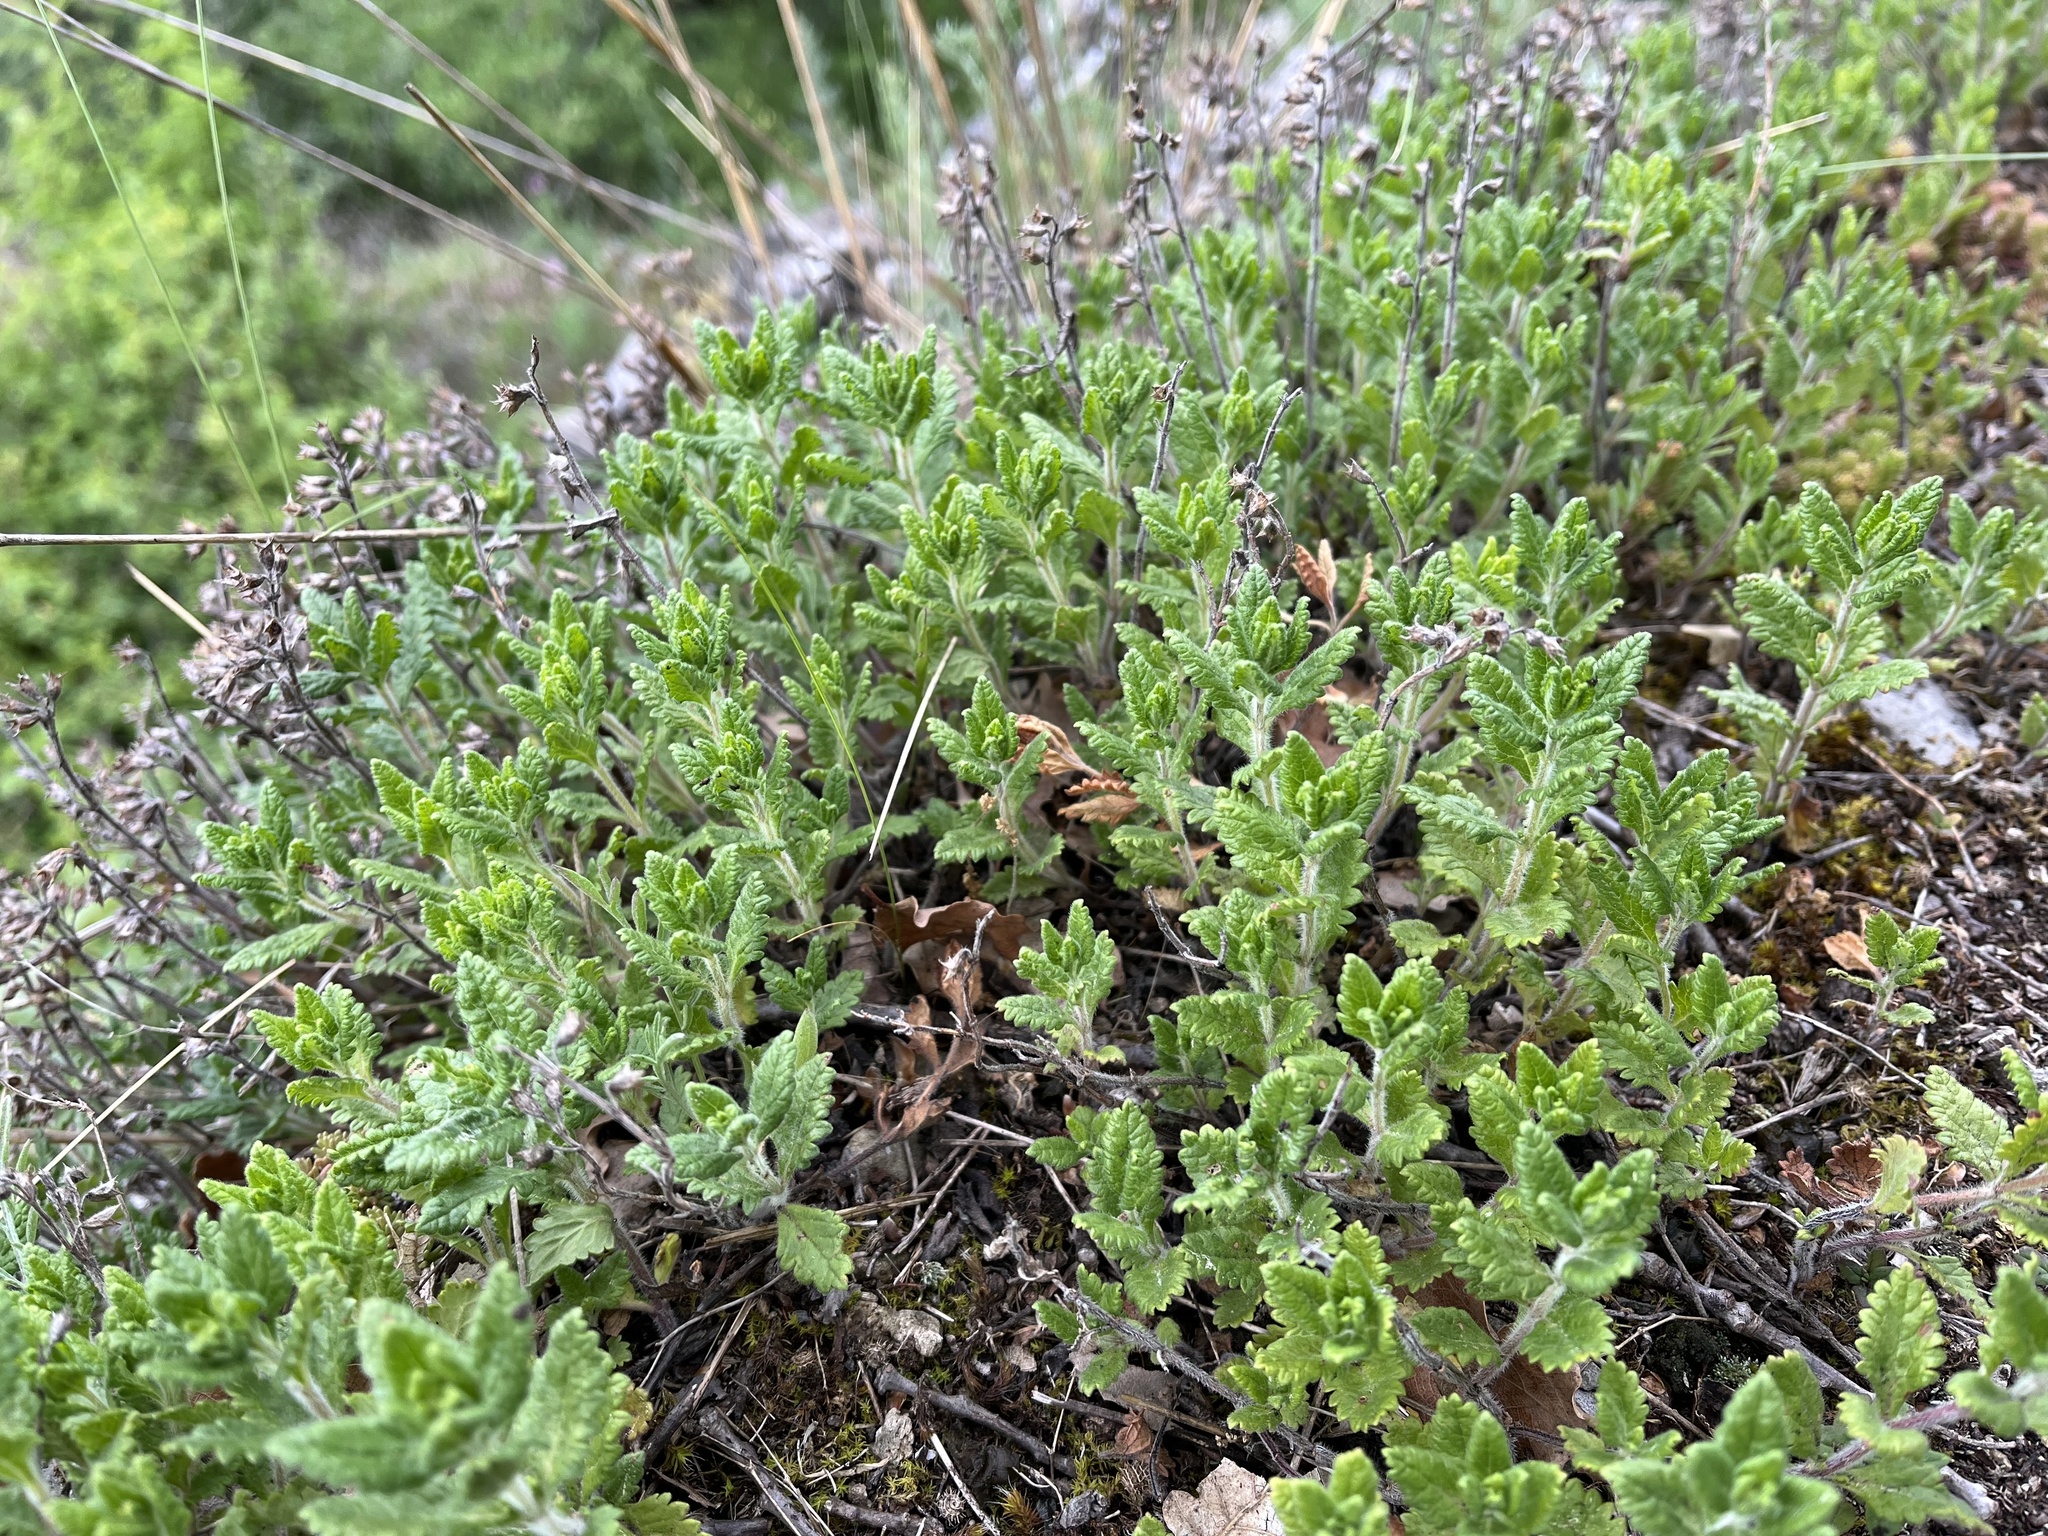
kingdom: Plantae
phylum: Tracheophyta
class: Magnoliopsida
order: Lamiales
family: Lamiaceae
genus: Teucrium
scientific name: Teucrium chamaedrys
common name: Wall germander
